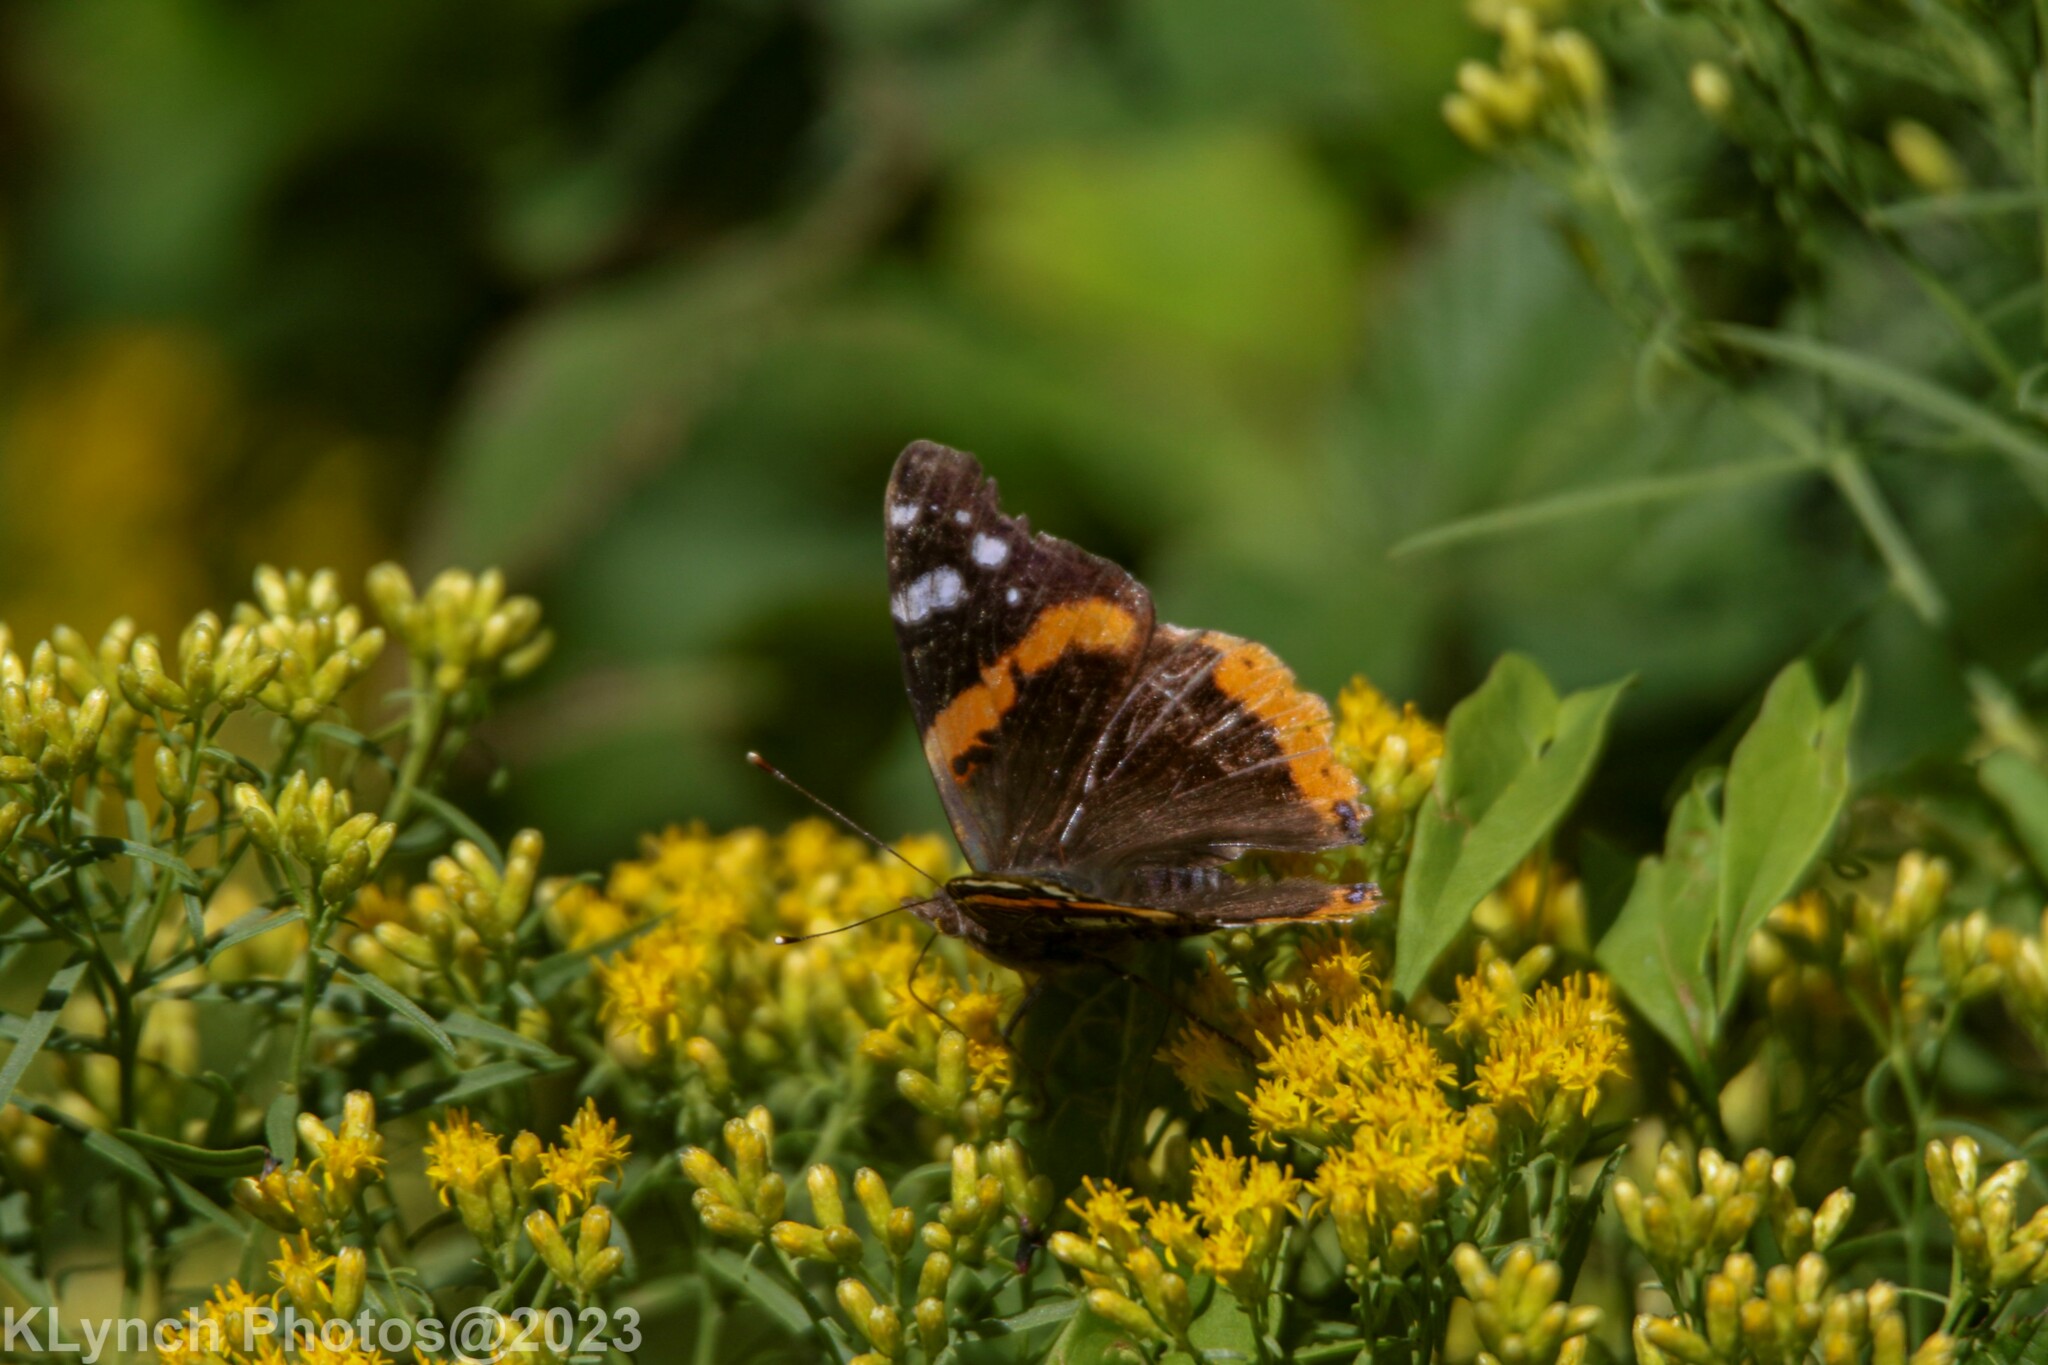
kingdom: Animalia
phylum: Arthropoda
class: Insecta
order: Lepidoptera
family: Nymphalidae
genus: Vanessa
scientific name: Vanessa atalanta
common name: Red admiral
